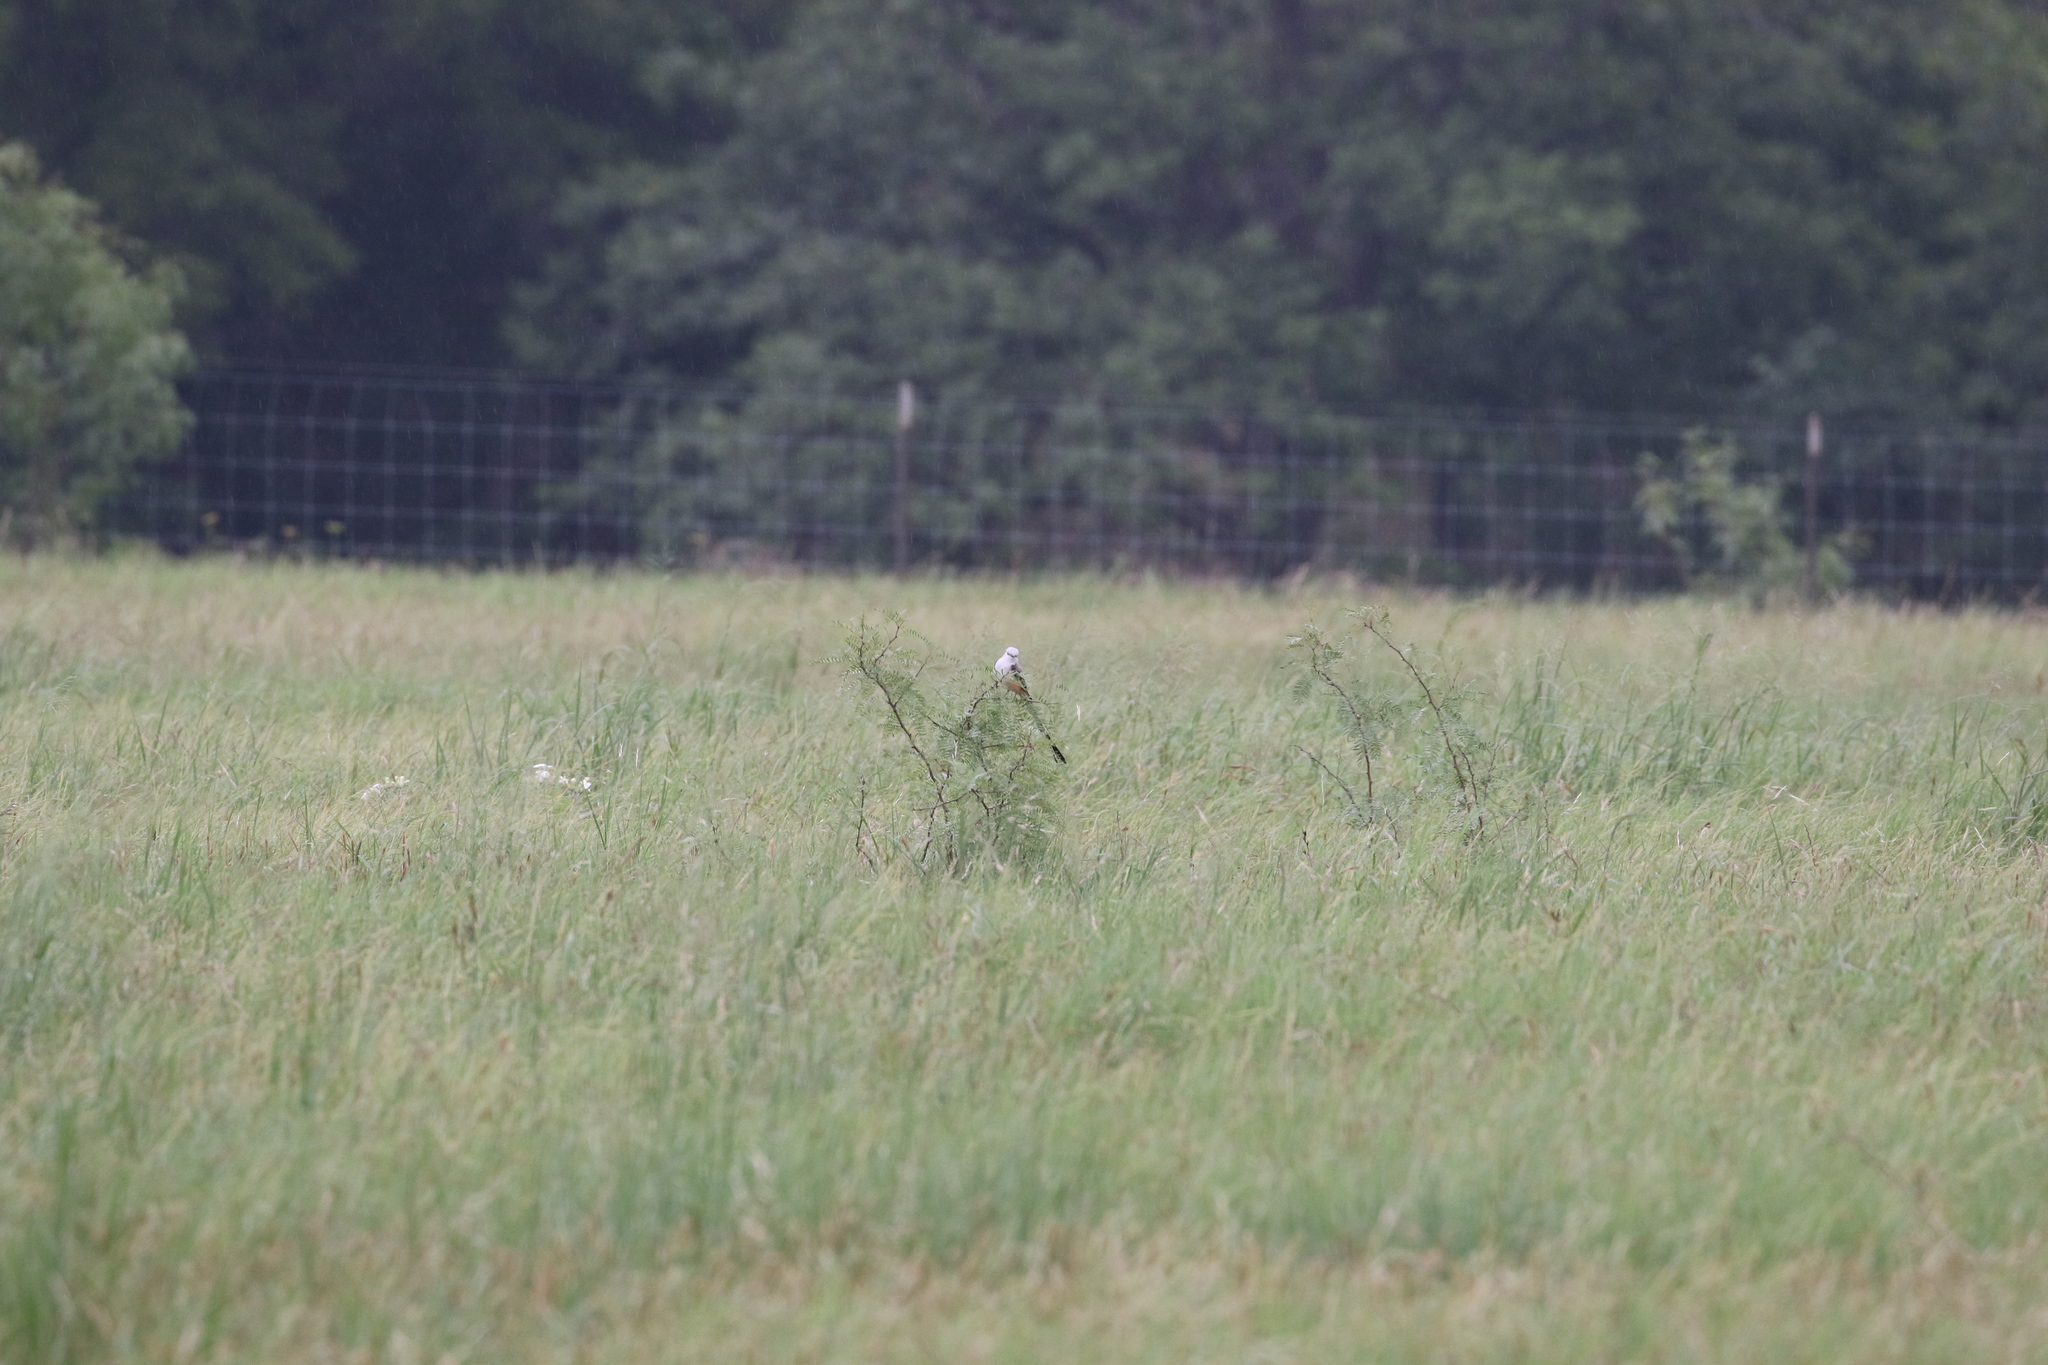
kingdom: Animalia
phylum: Chordata
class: Aves
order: Passeriformes
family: Tyrannidae
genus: Tyrannus
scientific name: Tyrannus forficatus
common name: Scissor-tailed flycatcher
